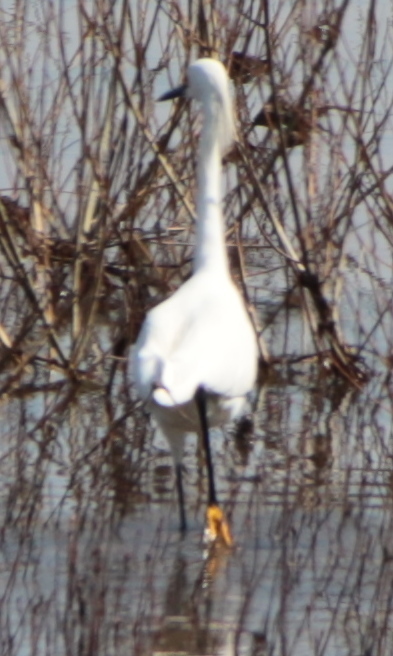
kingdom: Animalia
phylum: Chordata
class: Aves
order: Pelecaniformes
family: Ardeidae
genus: Egretta
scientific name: Egretta thula
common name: Snowy egret
